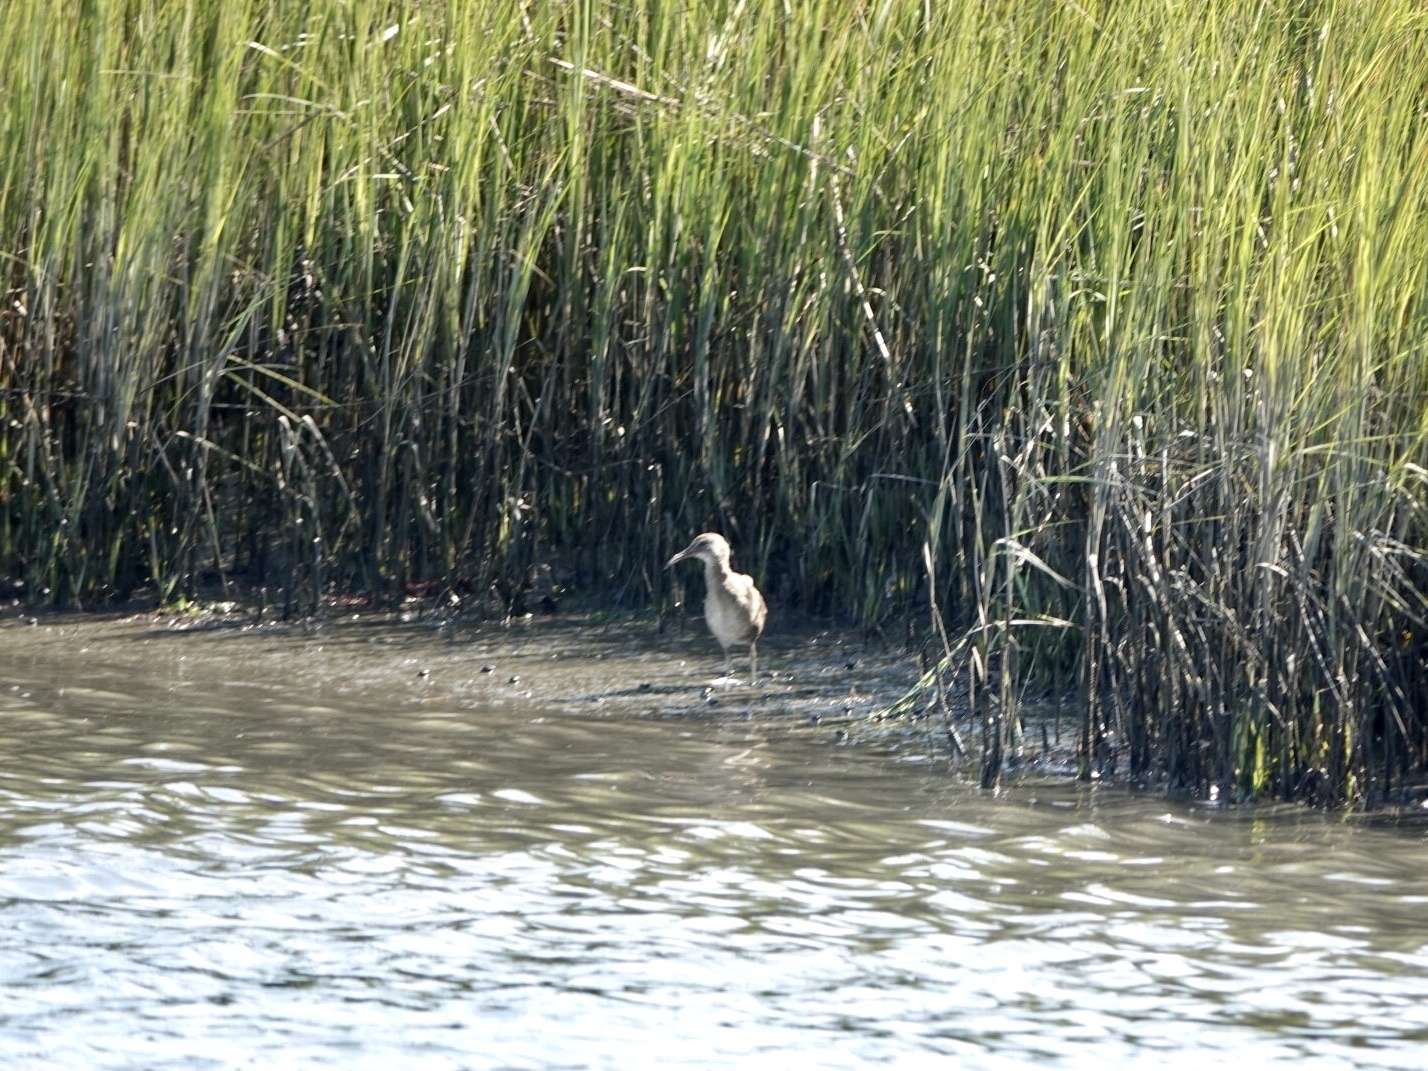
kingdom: Animalia
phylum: Chordata
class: Aves
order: Gruiformes
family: Rallidae
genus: Rallus
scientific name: Rallus crepitans
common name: Clapper rail
